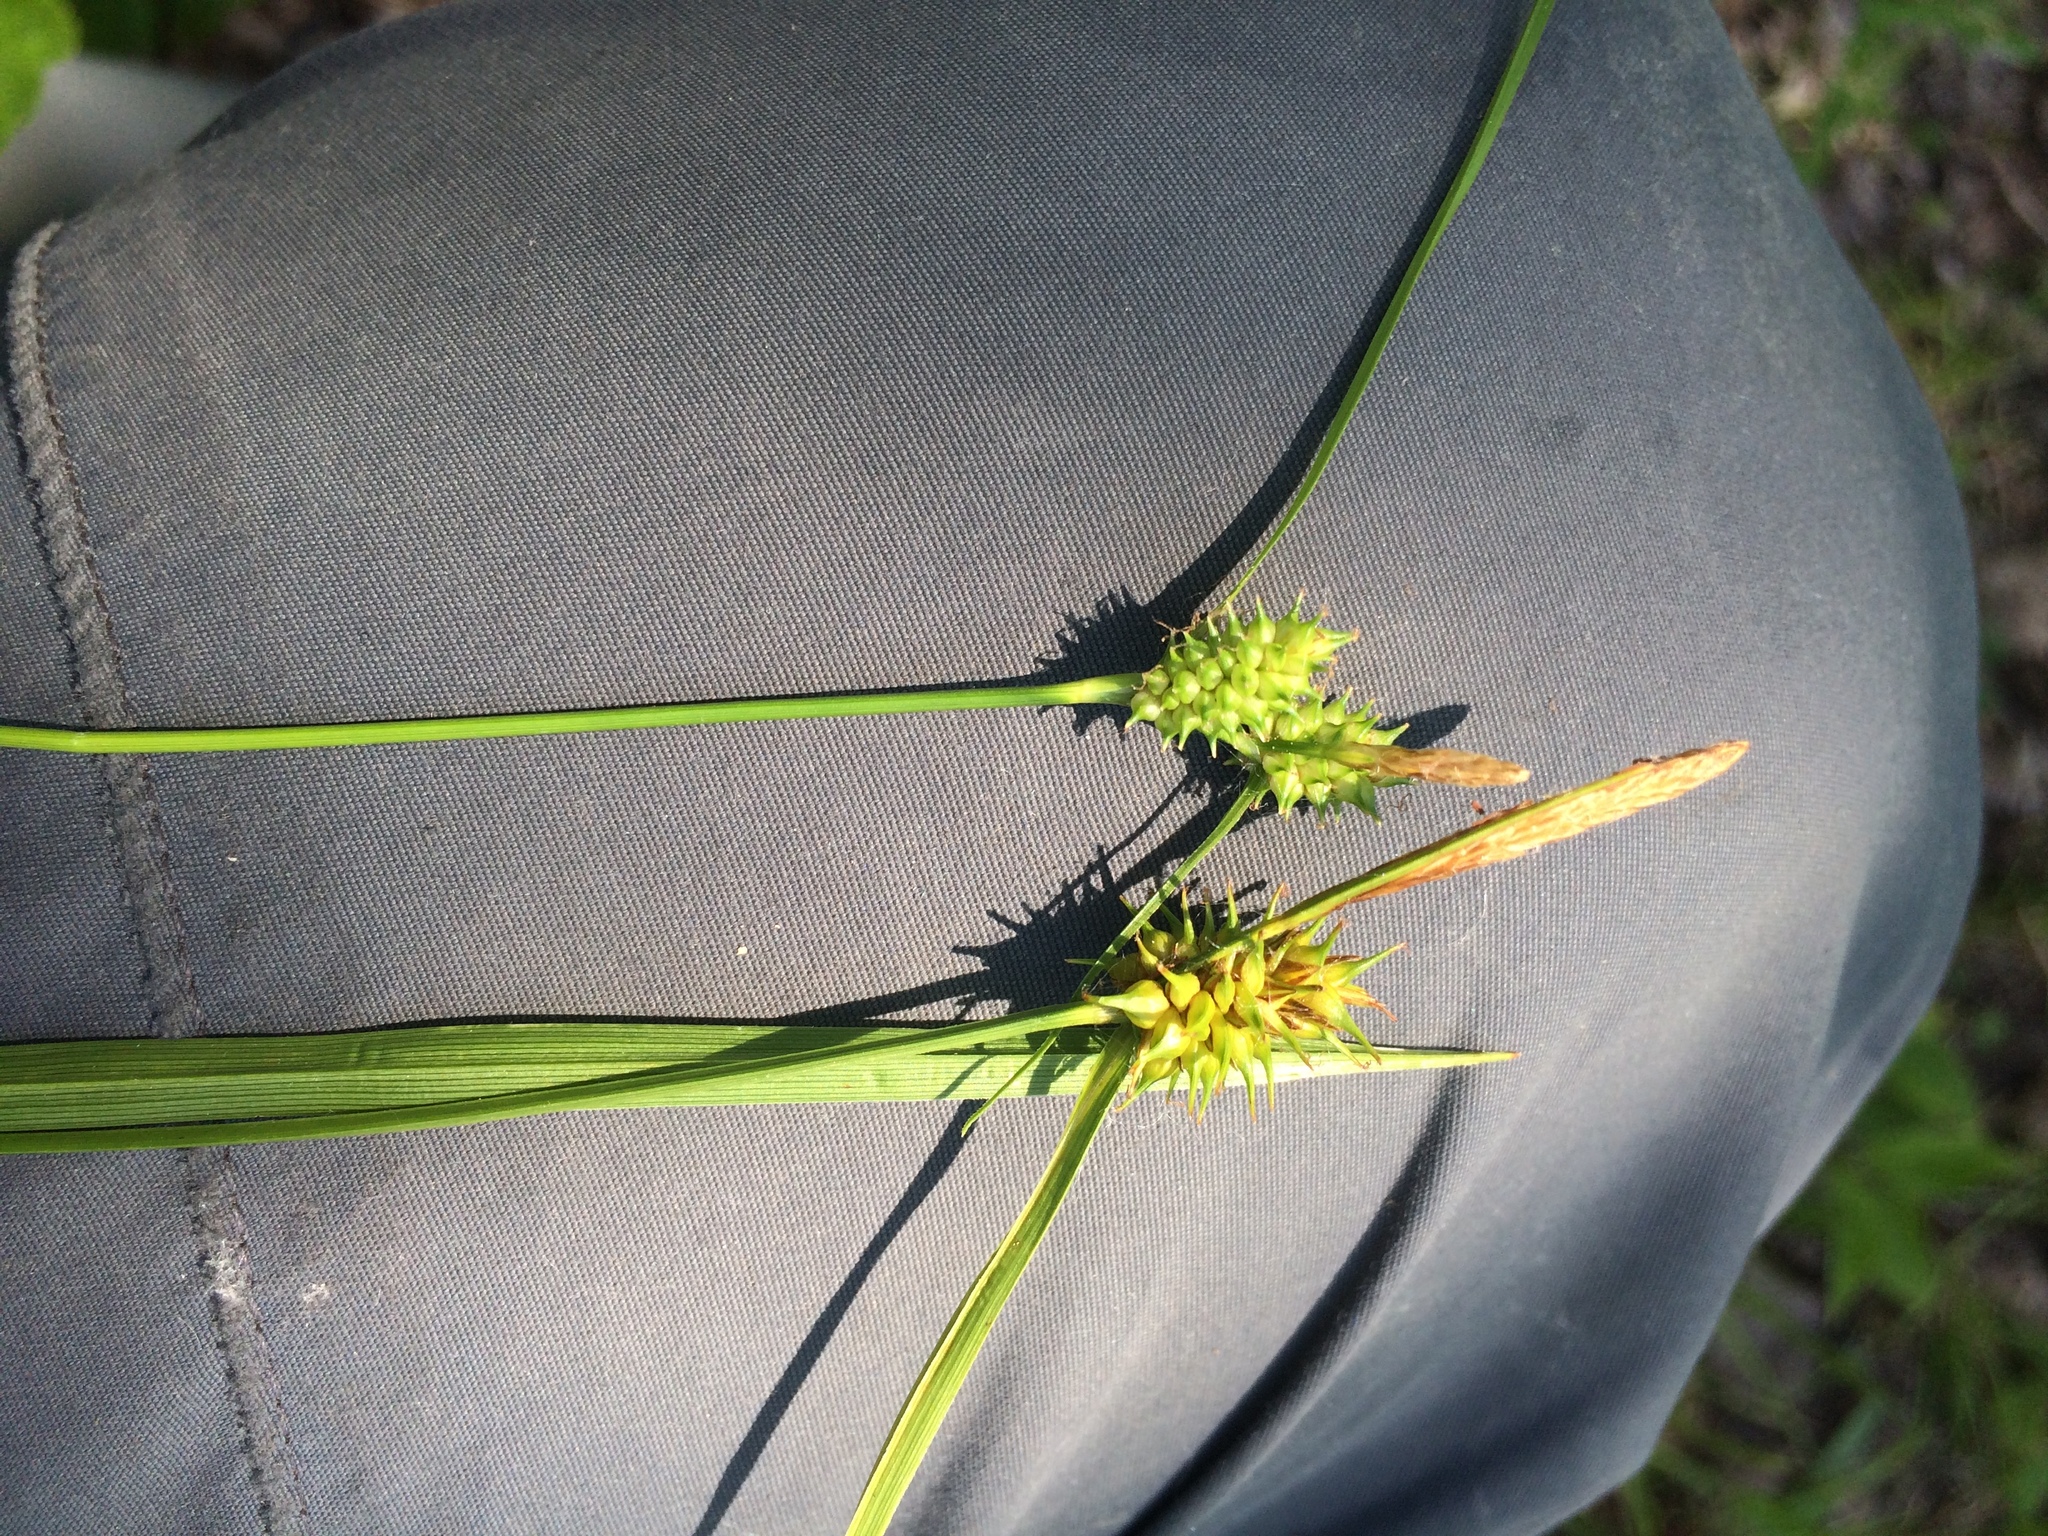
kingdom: Plantae
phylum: Tracheophyta
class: Liliopsida
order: Poales
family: Cyperaceae
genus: Carex
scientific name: Carex flava
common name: Large yellow-sedge
